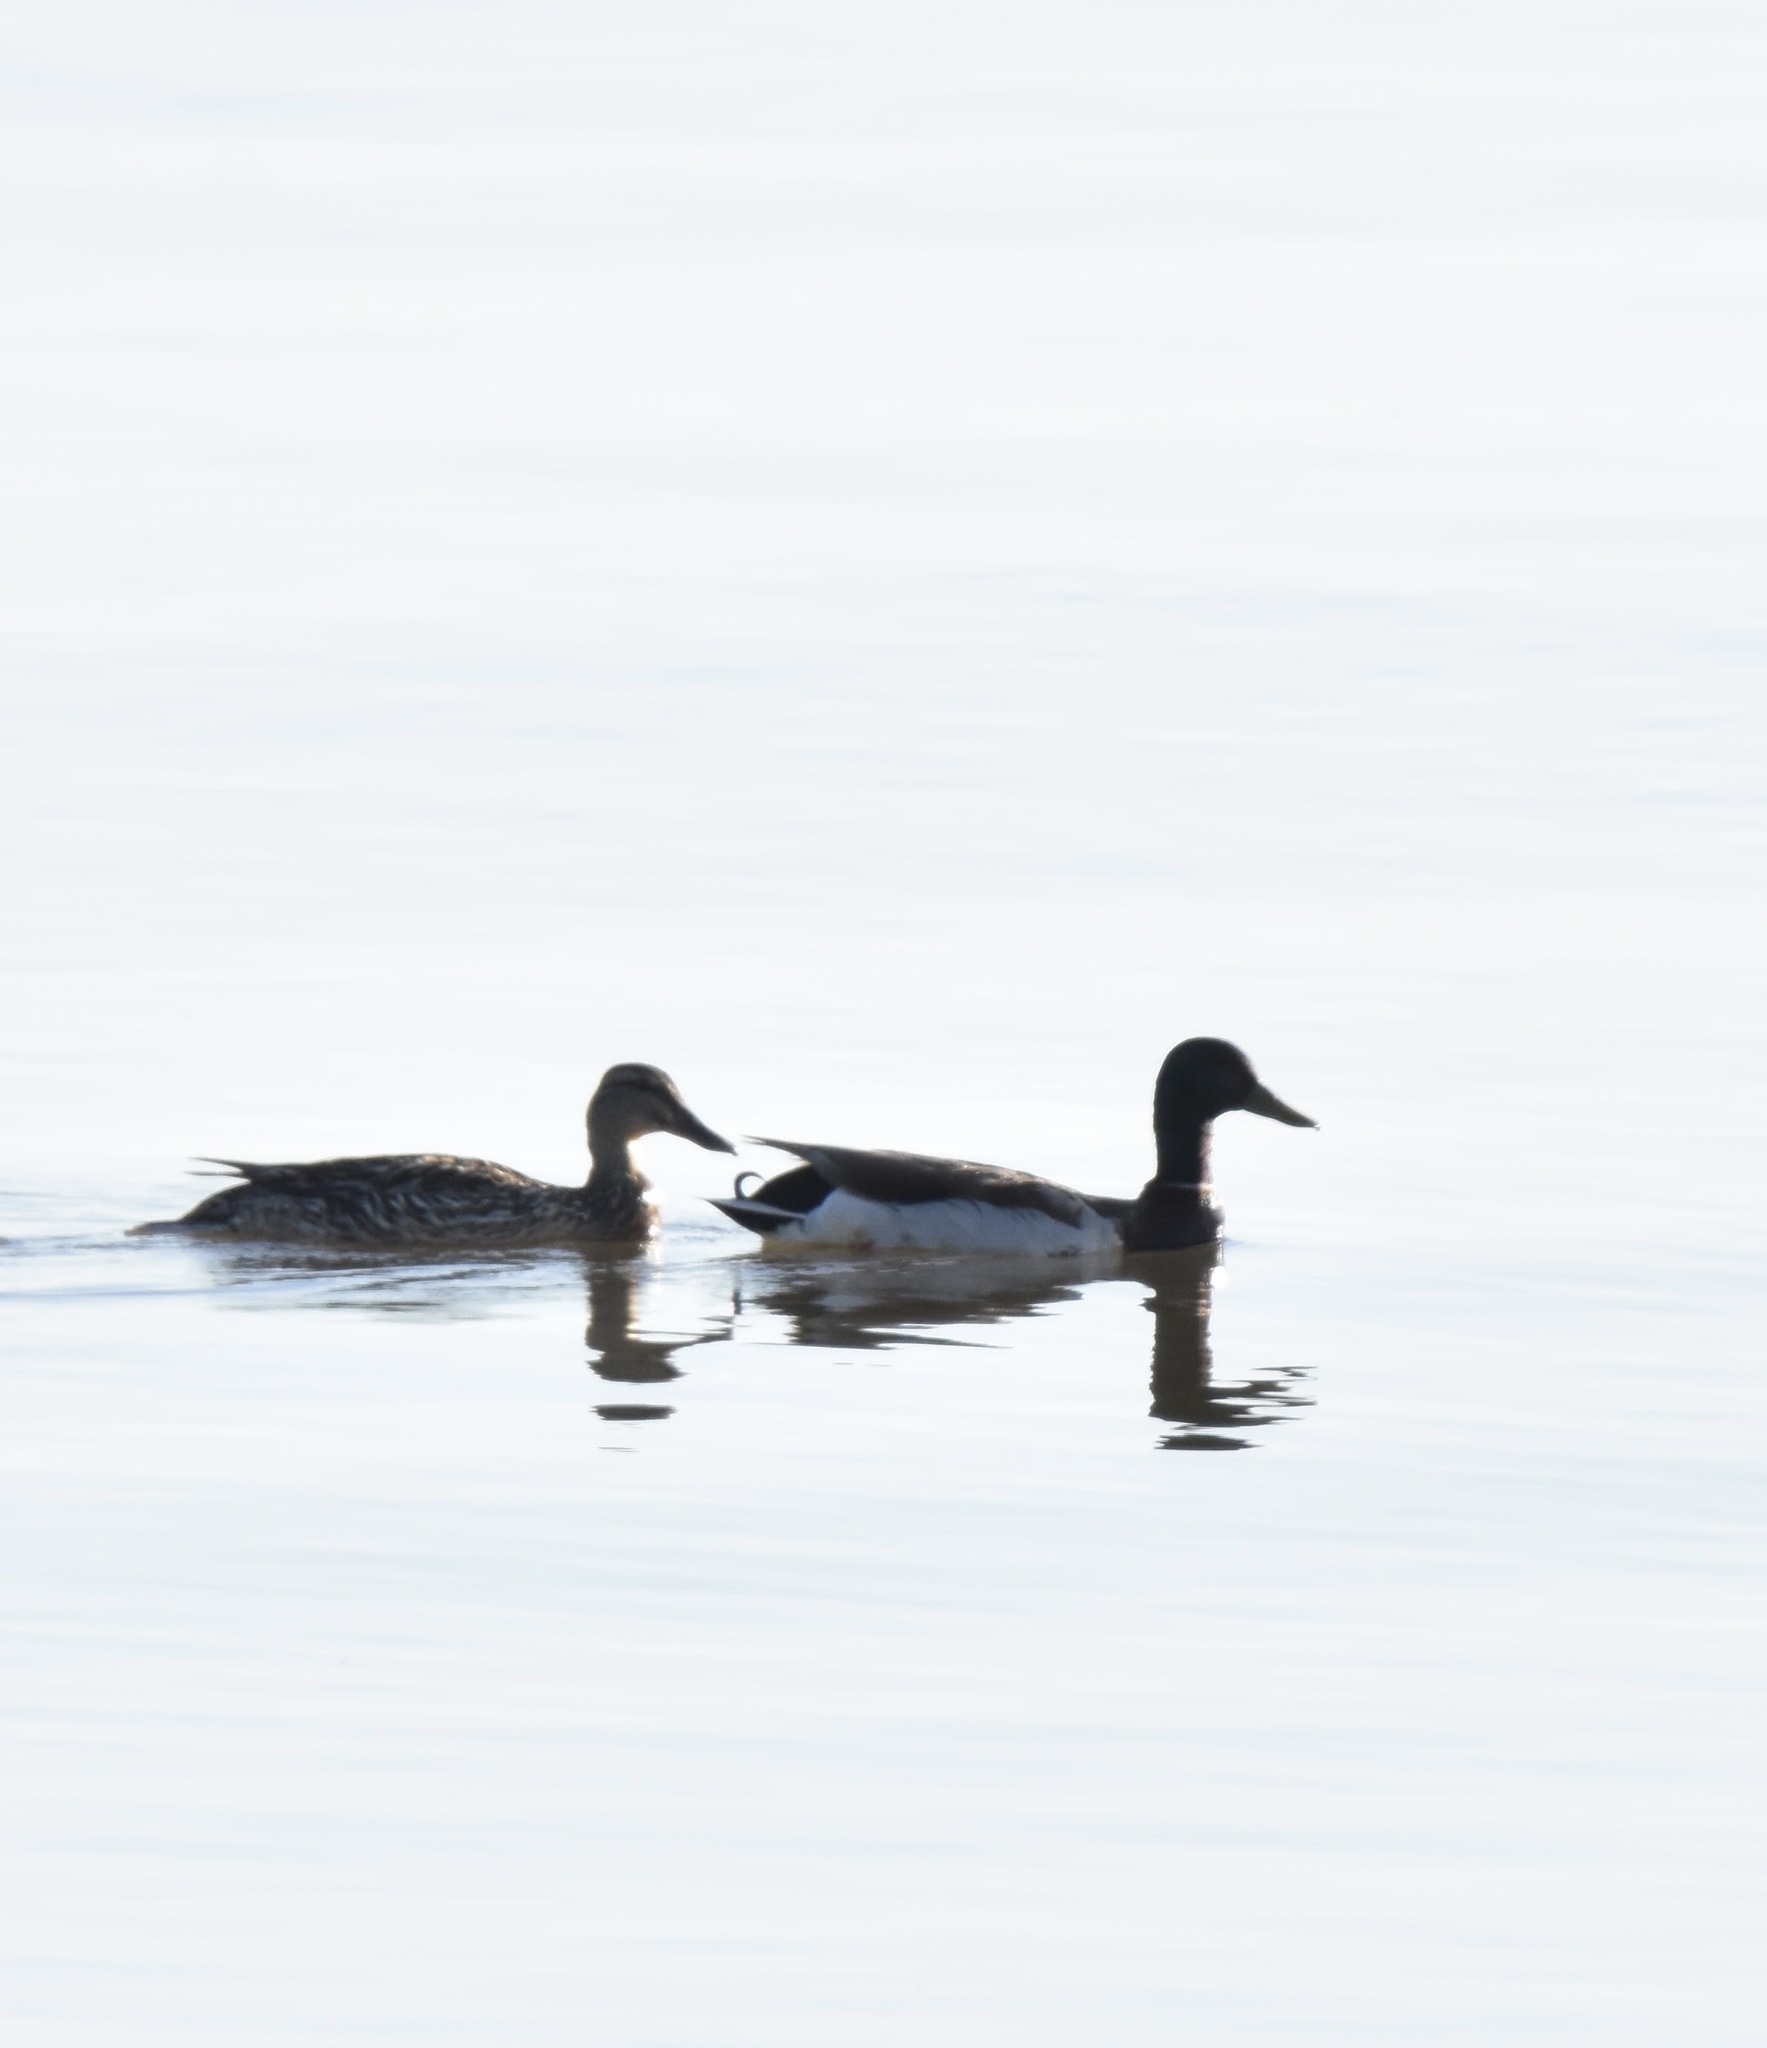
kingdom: Animalia
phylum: Chordata
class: Aves
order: Anseriformes
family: Anatidae
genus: Anas
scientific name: Anas platyrhynchos
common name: Mallard
